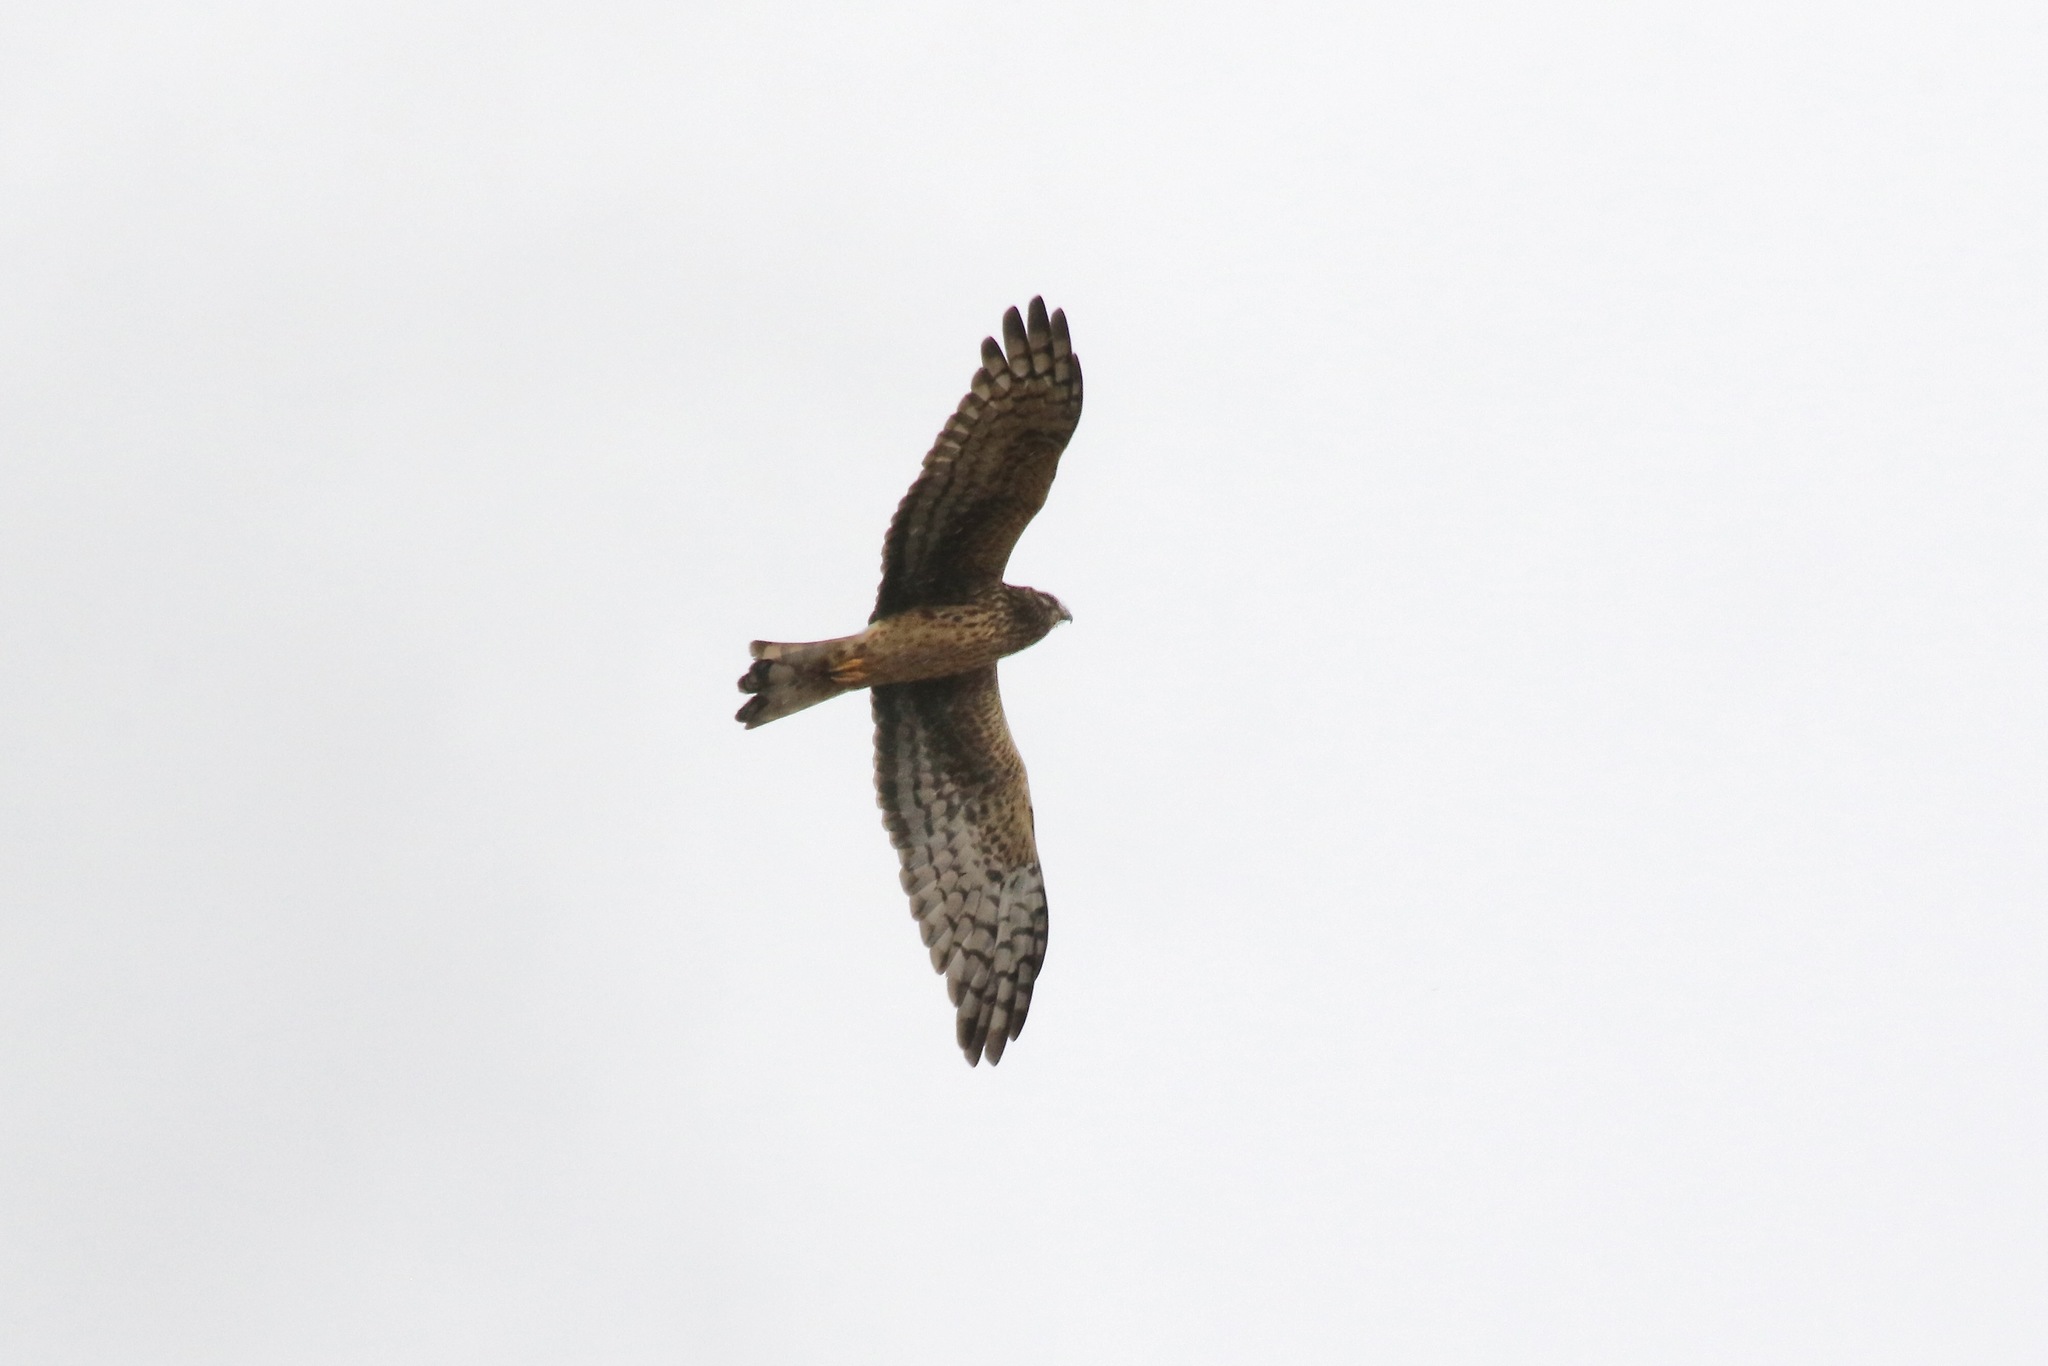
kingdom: Animalia
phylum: Chordata
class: Aves
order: Accipitriformes
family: Accipitridae
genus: Circus
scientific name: Circus cyaneus
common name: Hen harrier
